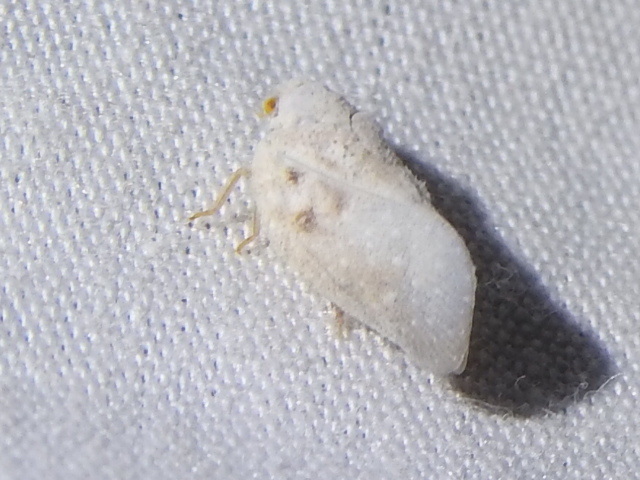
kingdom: Animalia
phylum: Arthropoda
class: Insecta
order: Hemiptera
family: Flatidae
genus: Metcalfa
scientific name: Metcalfa pruinosa
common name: Citrus flatid planthopper
